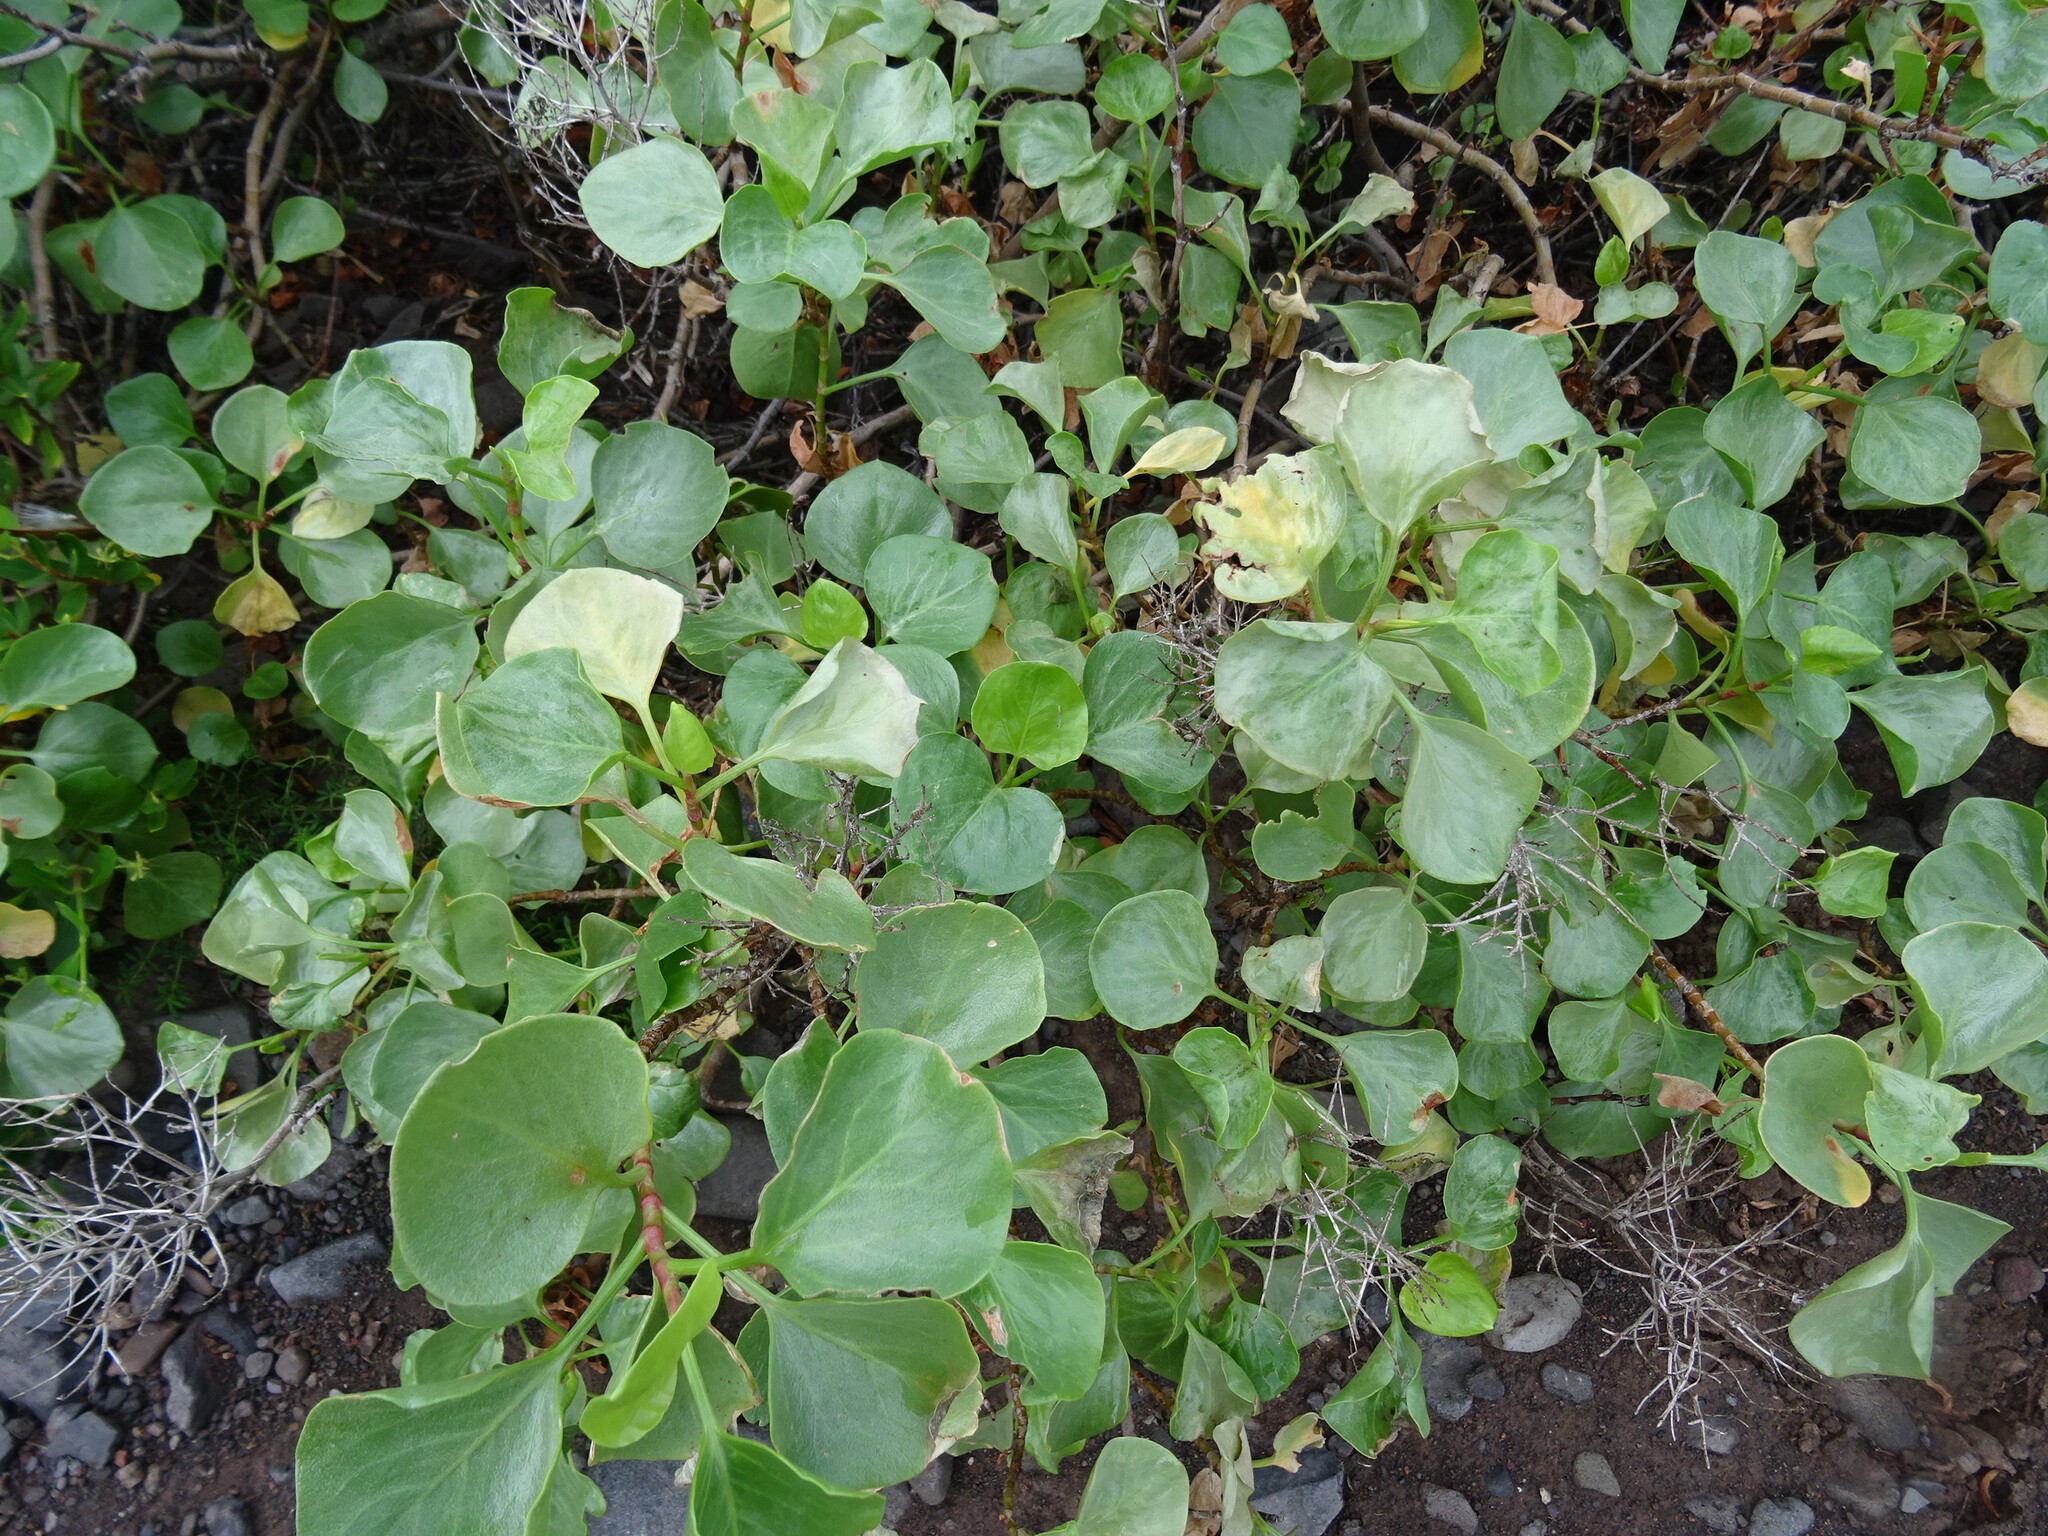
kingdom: Plantae
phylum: Tracheophyta
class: Magnoliopsida
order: Caryophyllales
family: Polygonaceae
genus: Rumex
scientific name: Rumex lunaria
